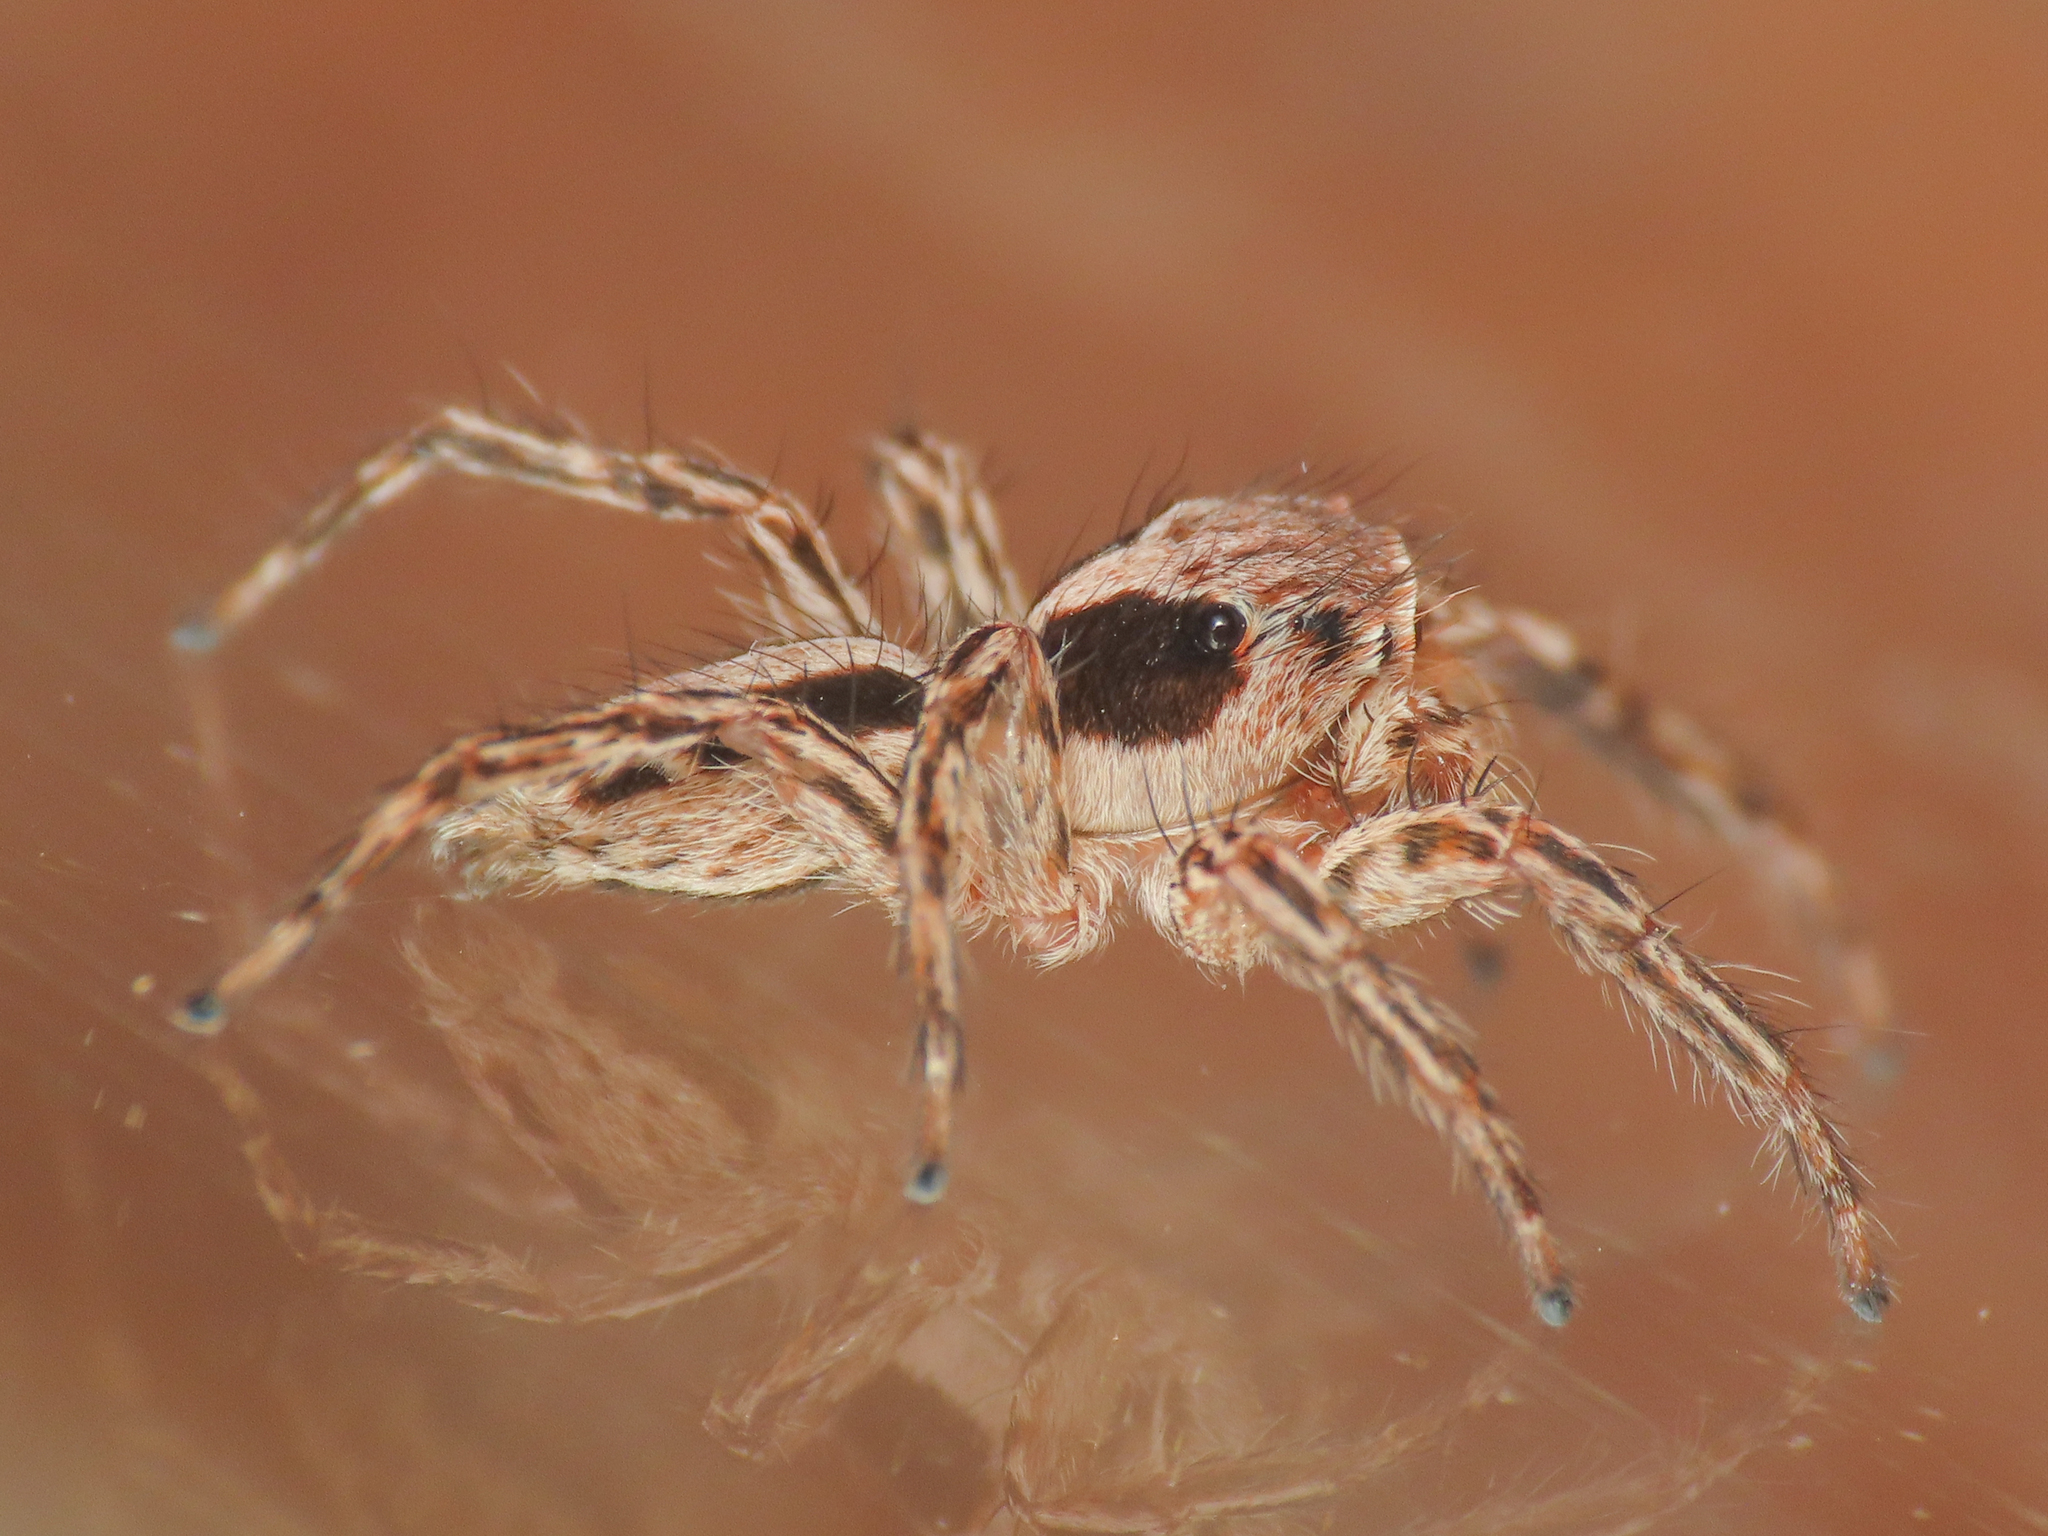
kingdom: Animalia
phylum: Arthropoda
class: Arachnida
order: Araneae
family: Salticidae
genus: Plexippus
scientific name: Plexippus petersi
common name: Jumping spider
